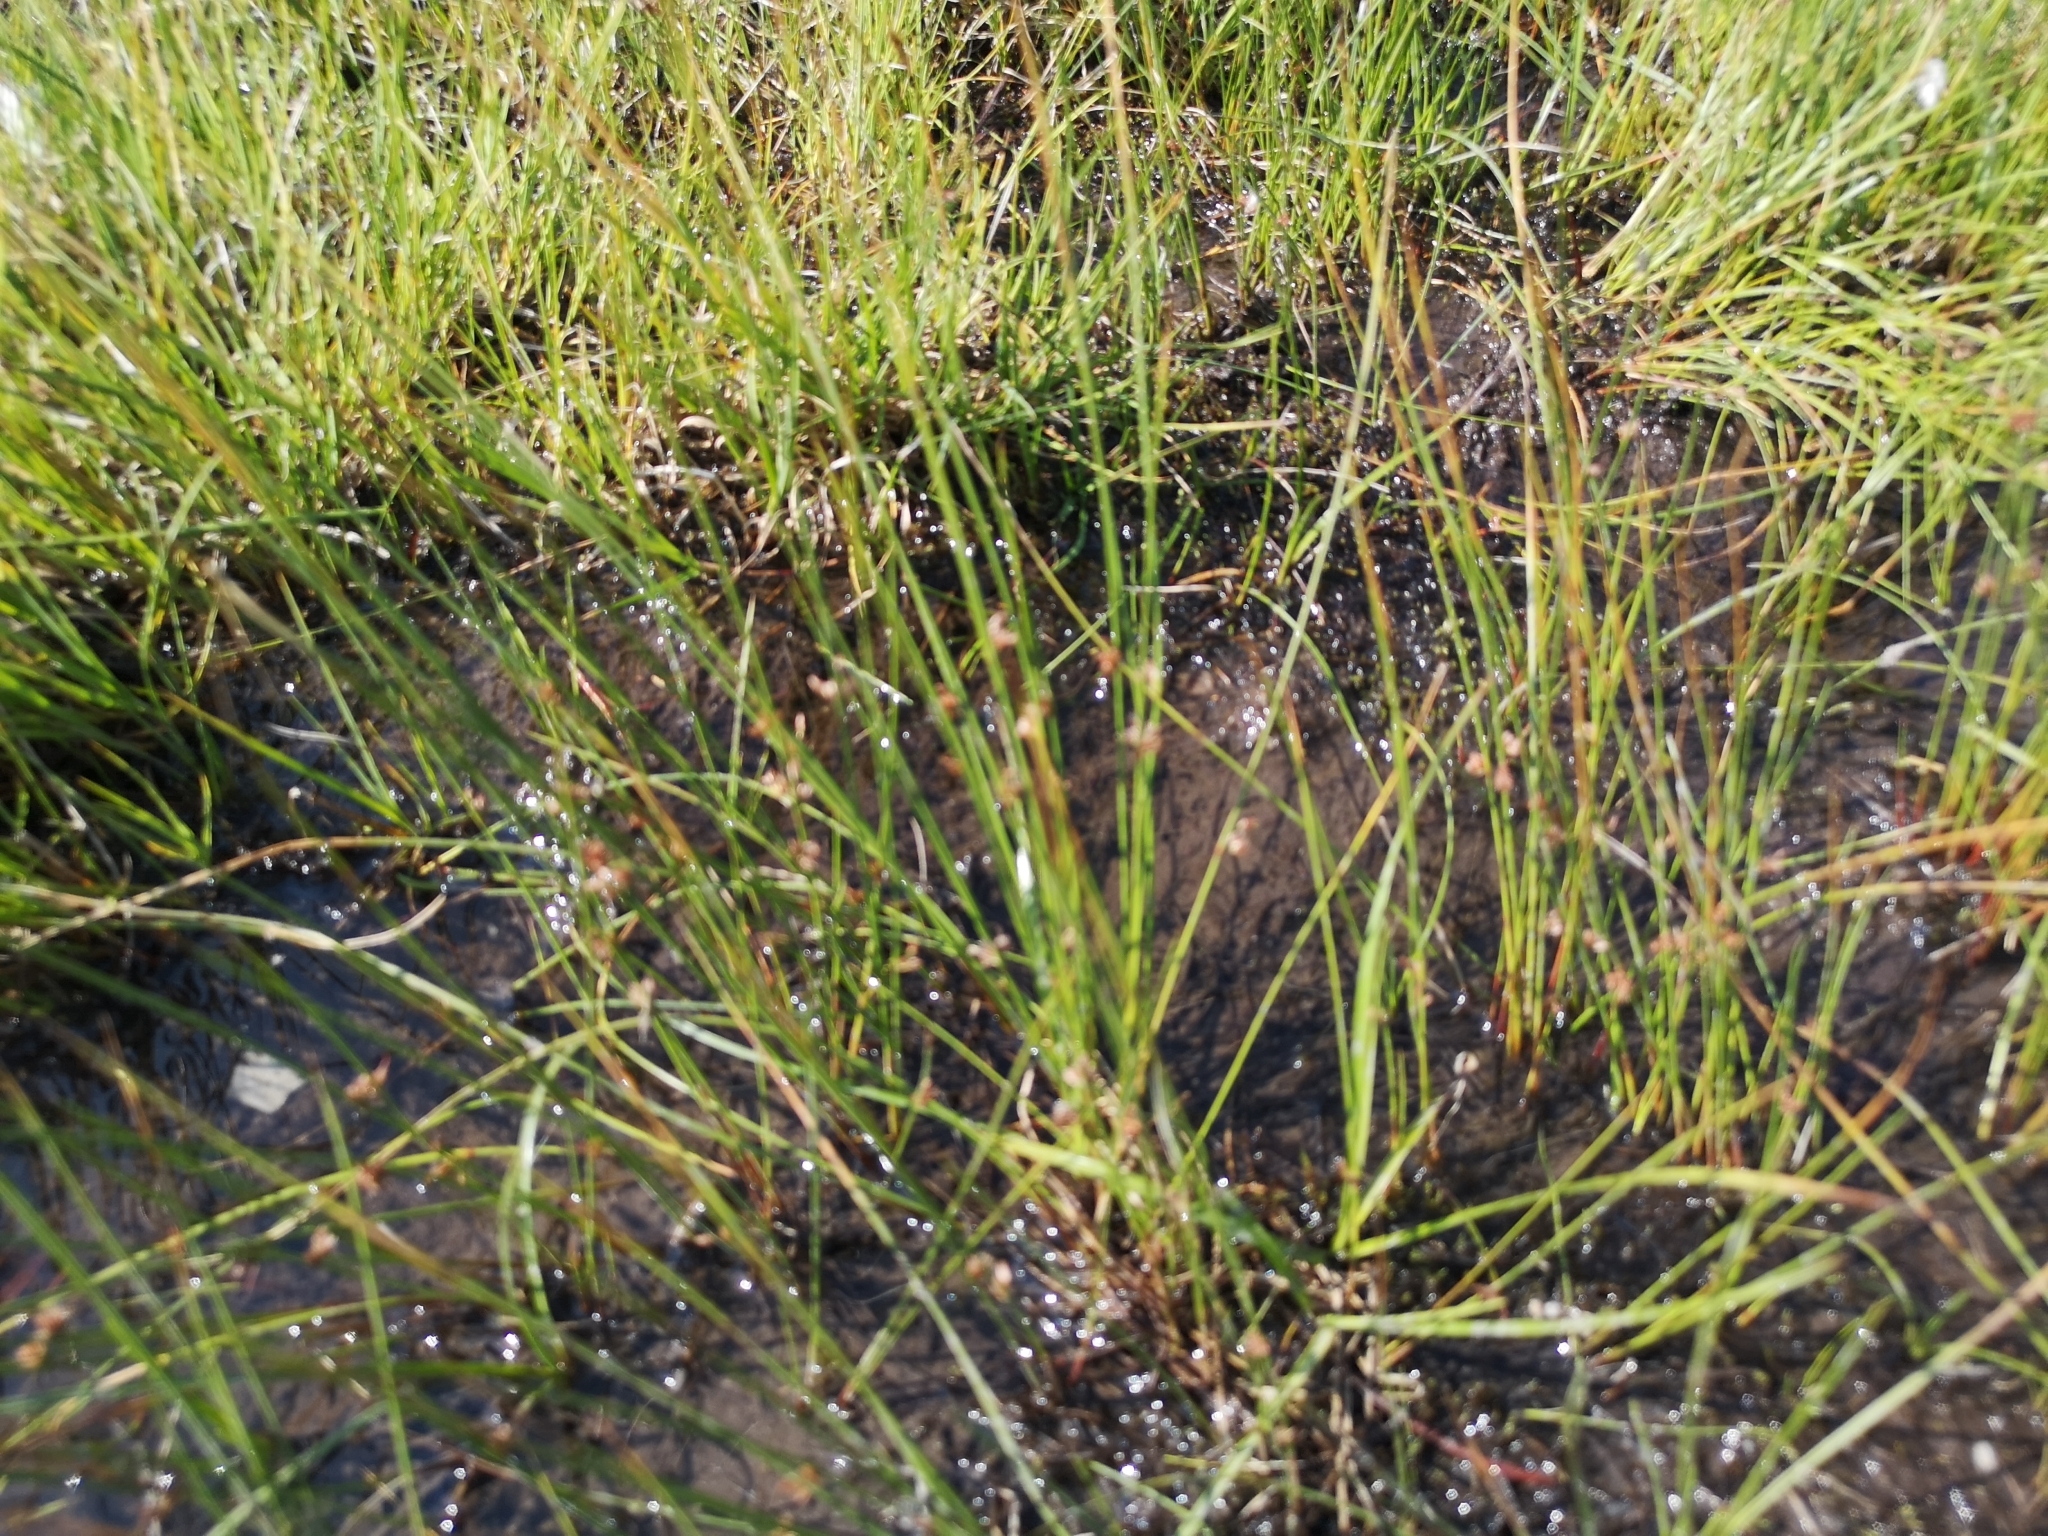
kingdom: Plantae
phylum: Tracheophyta
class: Liliopsida
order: Poales
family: Juncaceae
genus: Juncus
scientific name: Juncus filiformis
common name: Thread rush
